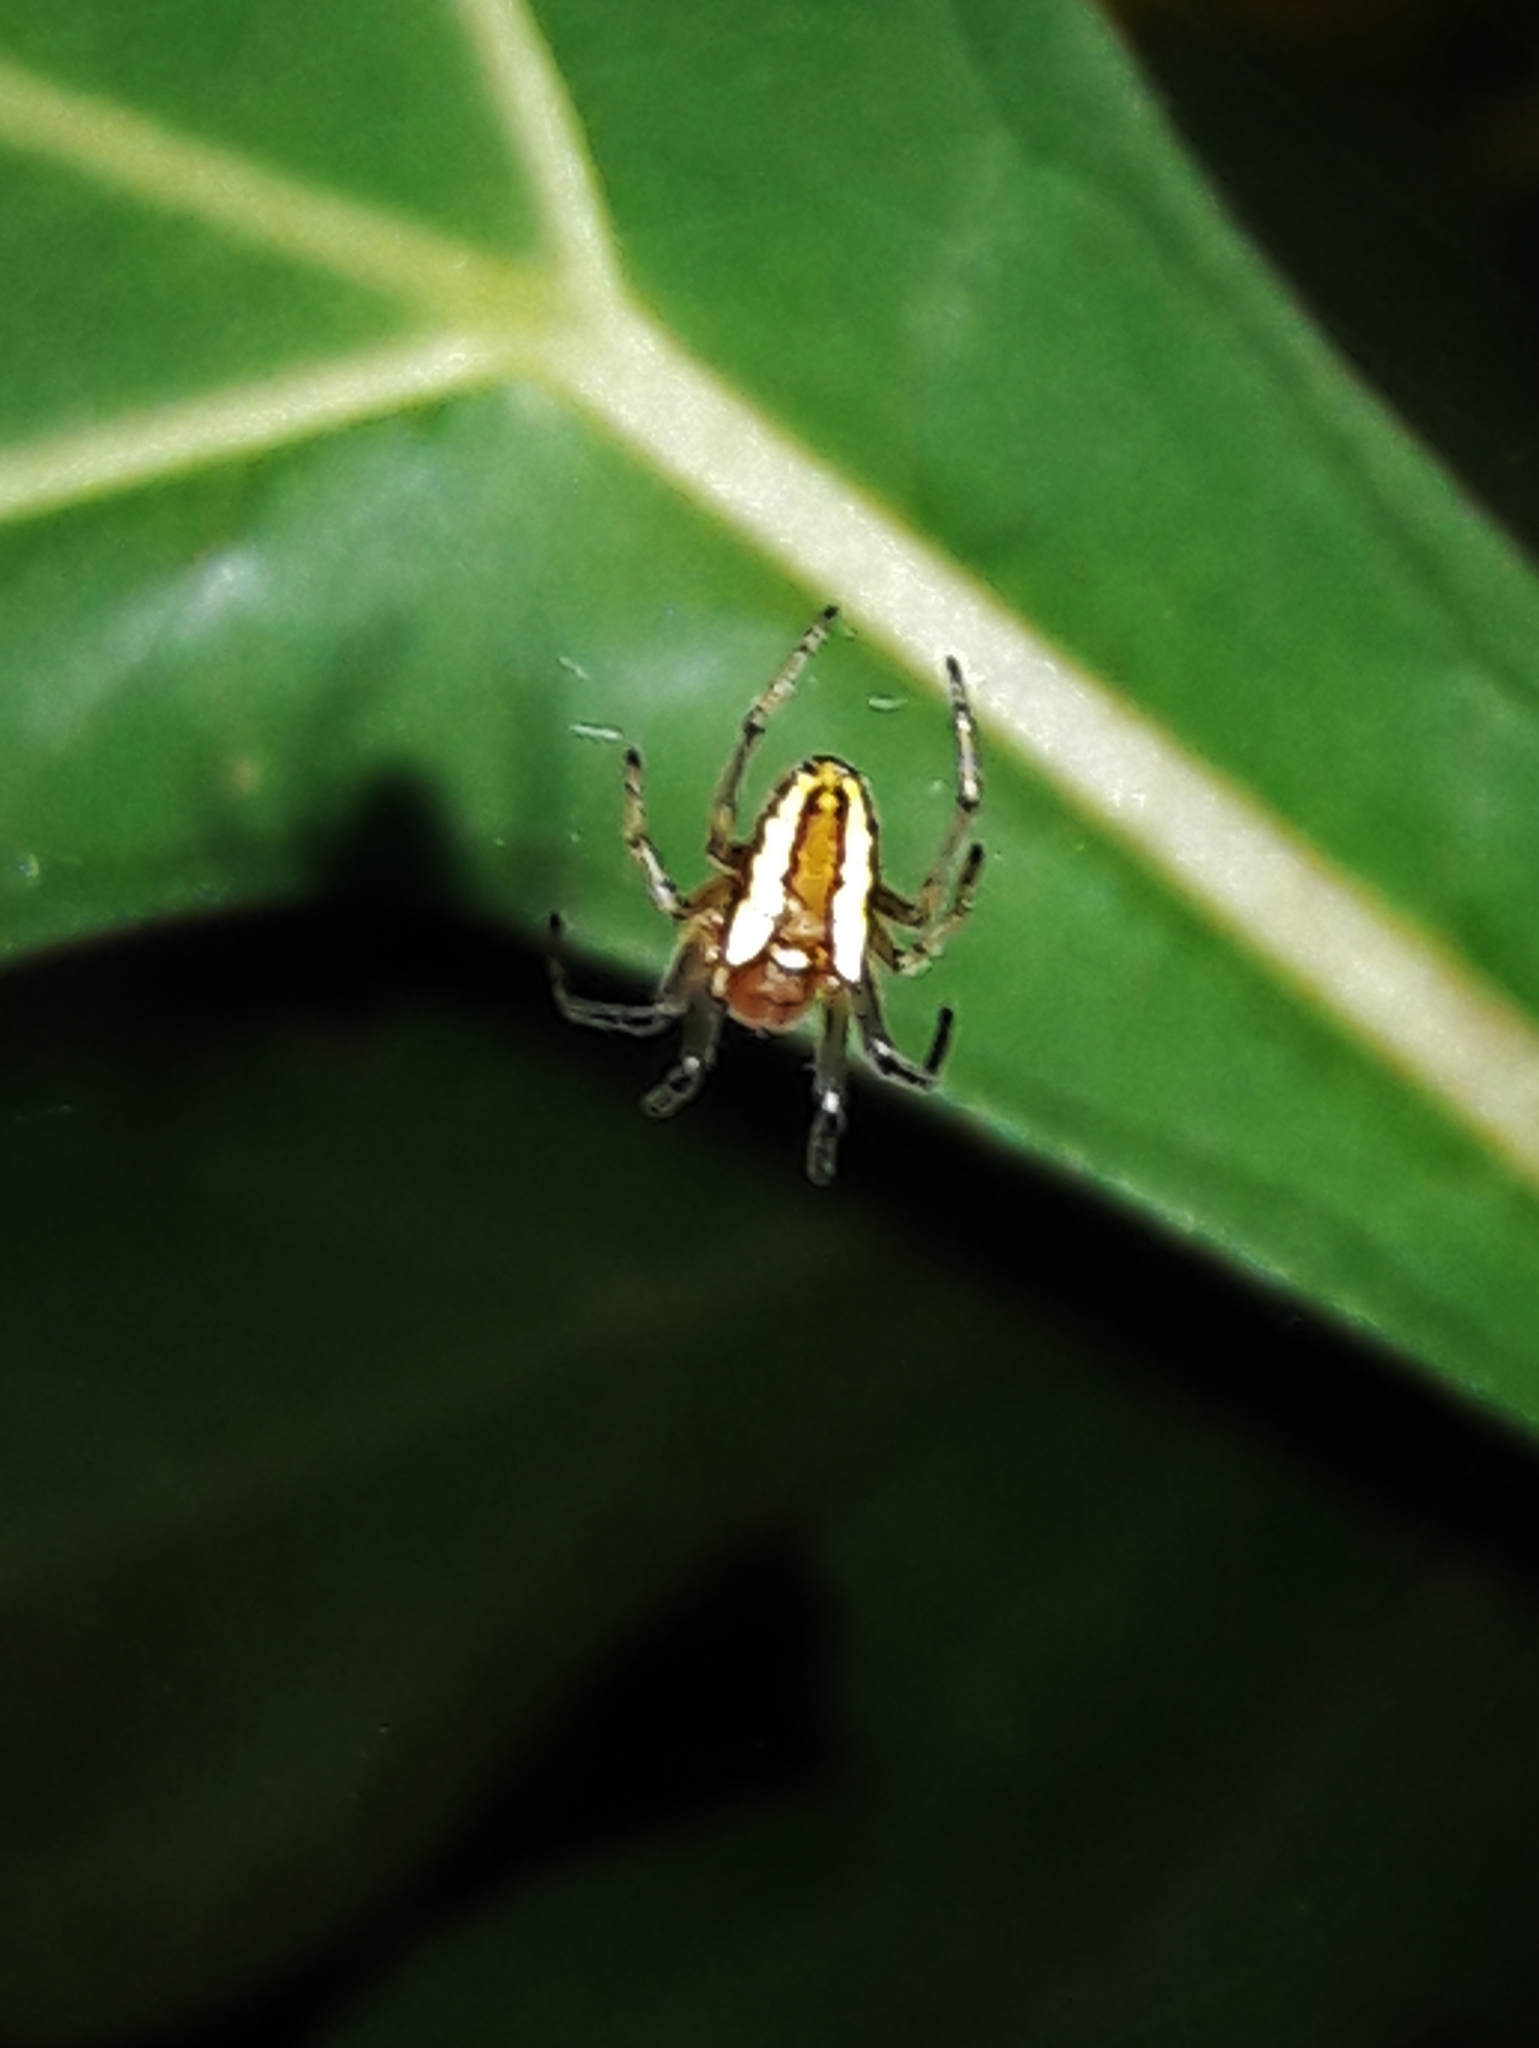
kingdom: Animalia
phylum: Arthropoda
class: Arachnida
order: Araneae
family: Araneidae
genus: Alpaida
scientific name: Alpaida bicornuta
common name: Orb weavers
